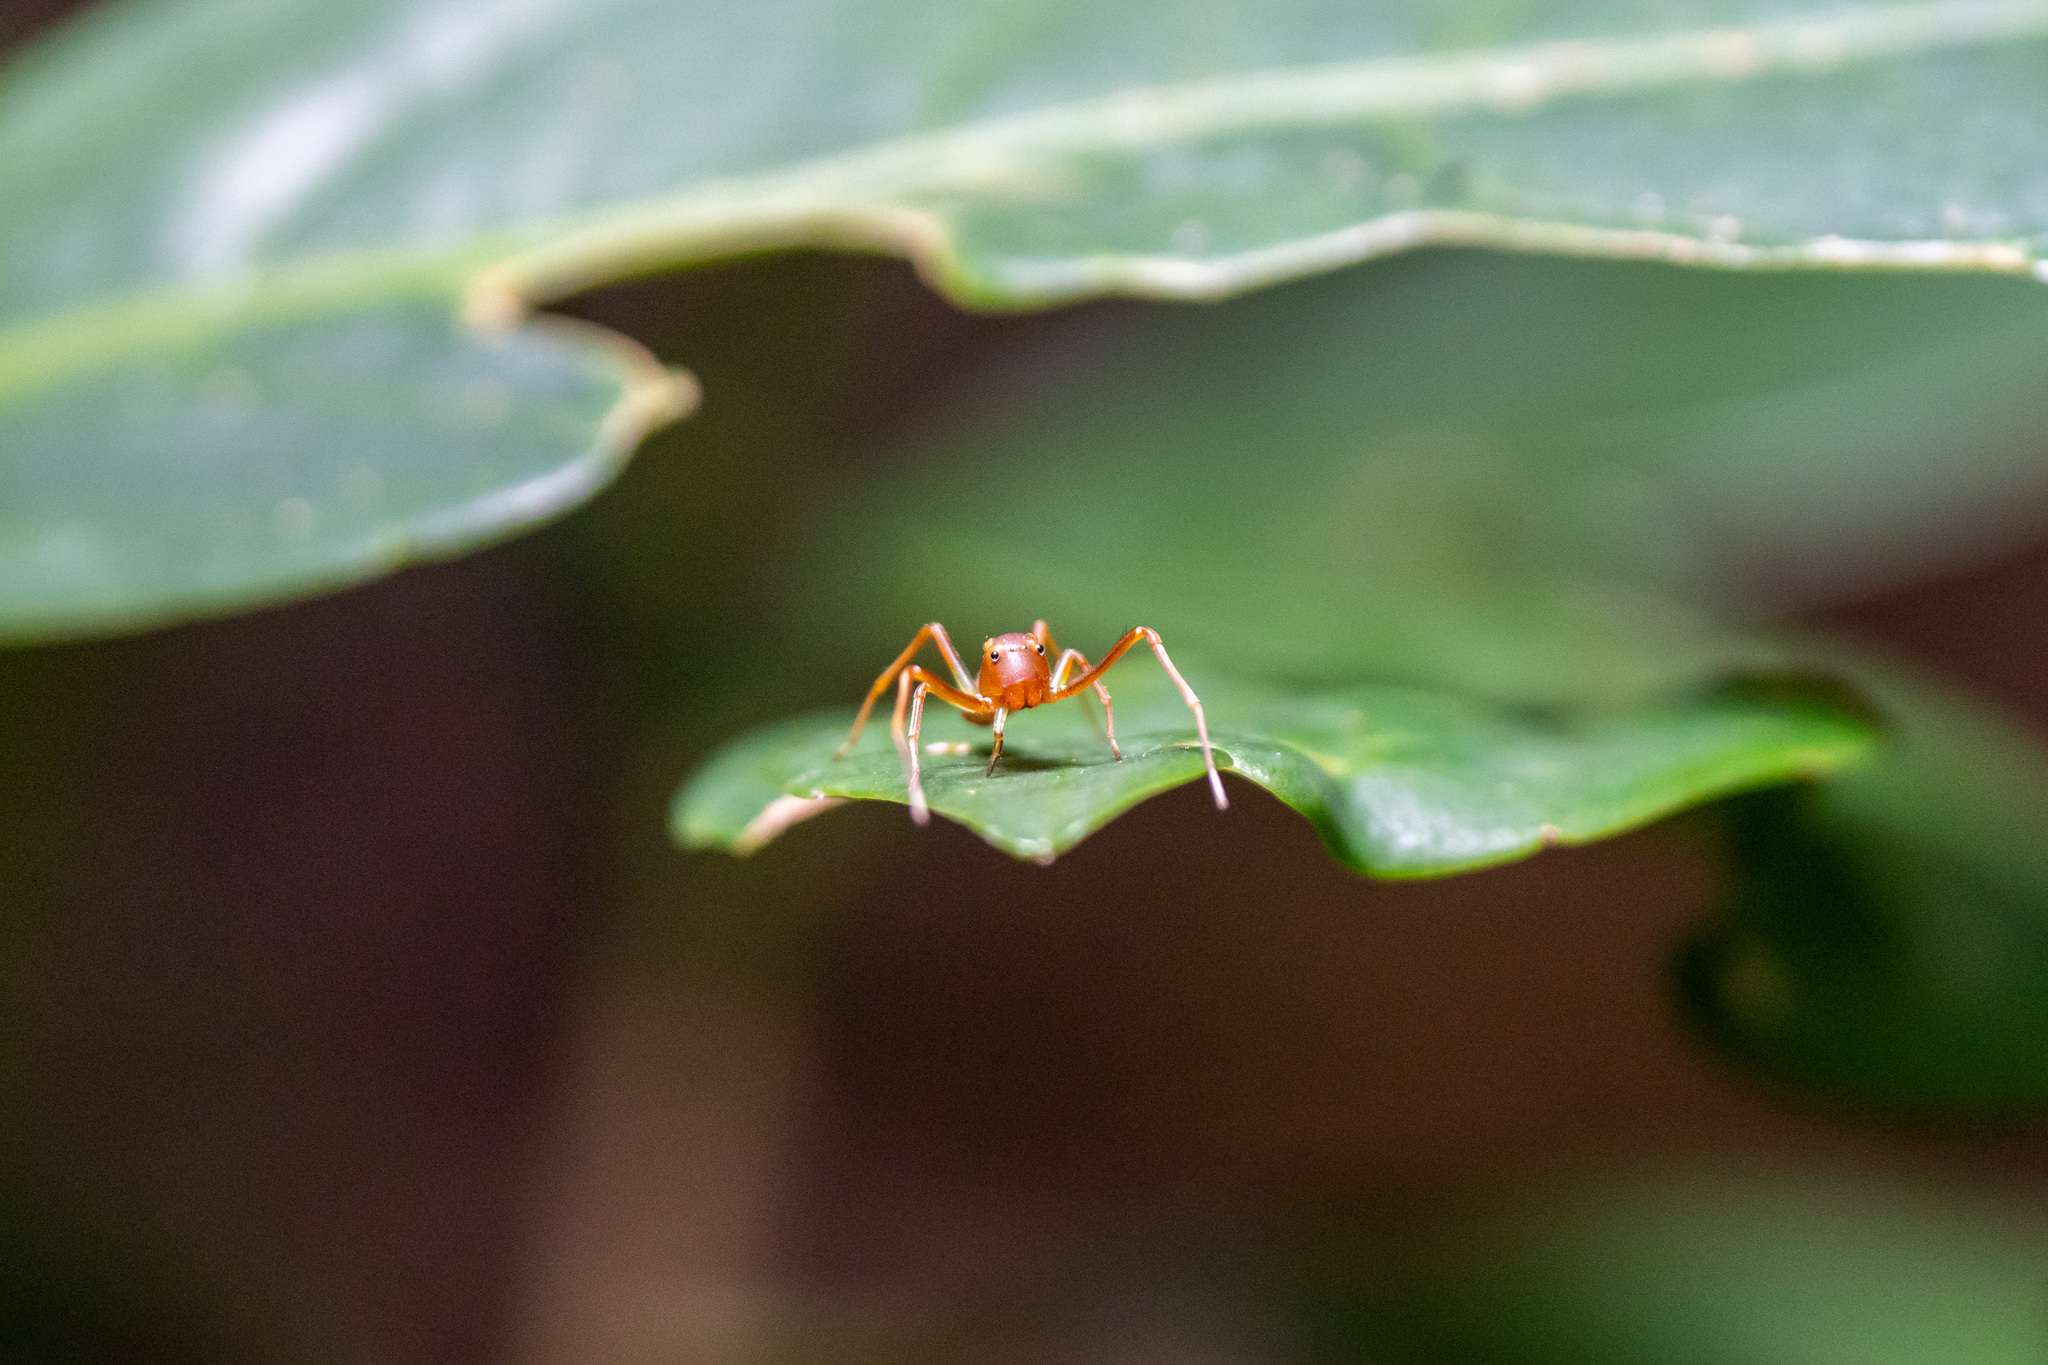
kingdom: Animalia
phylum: Arthropoda
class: Arachnida
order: Araneae
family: Thomisidae
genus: Amyciaea
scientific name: Amyciaea forticeps
